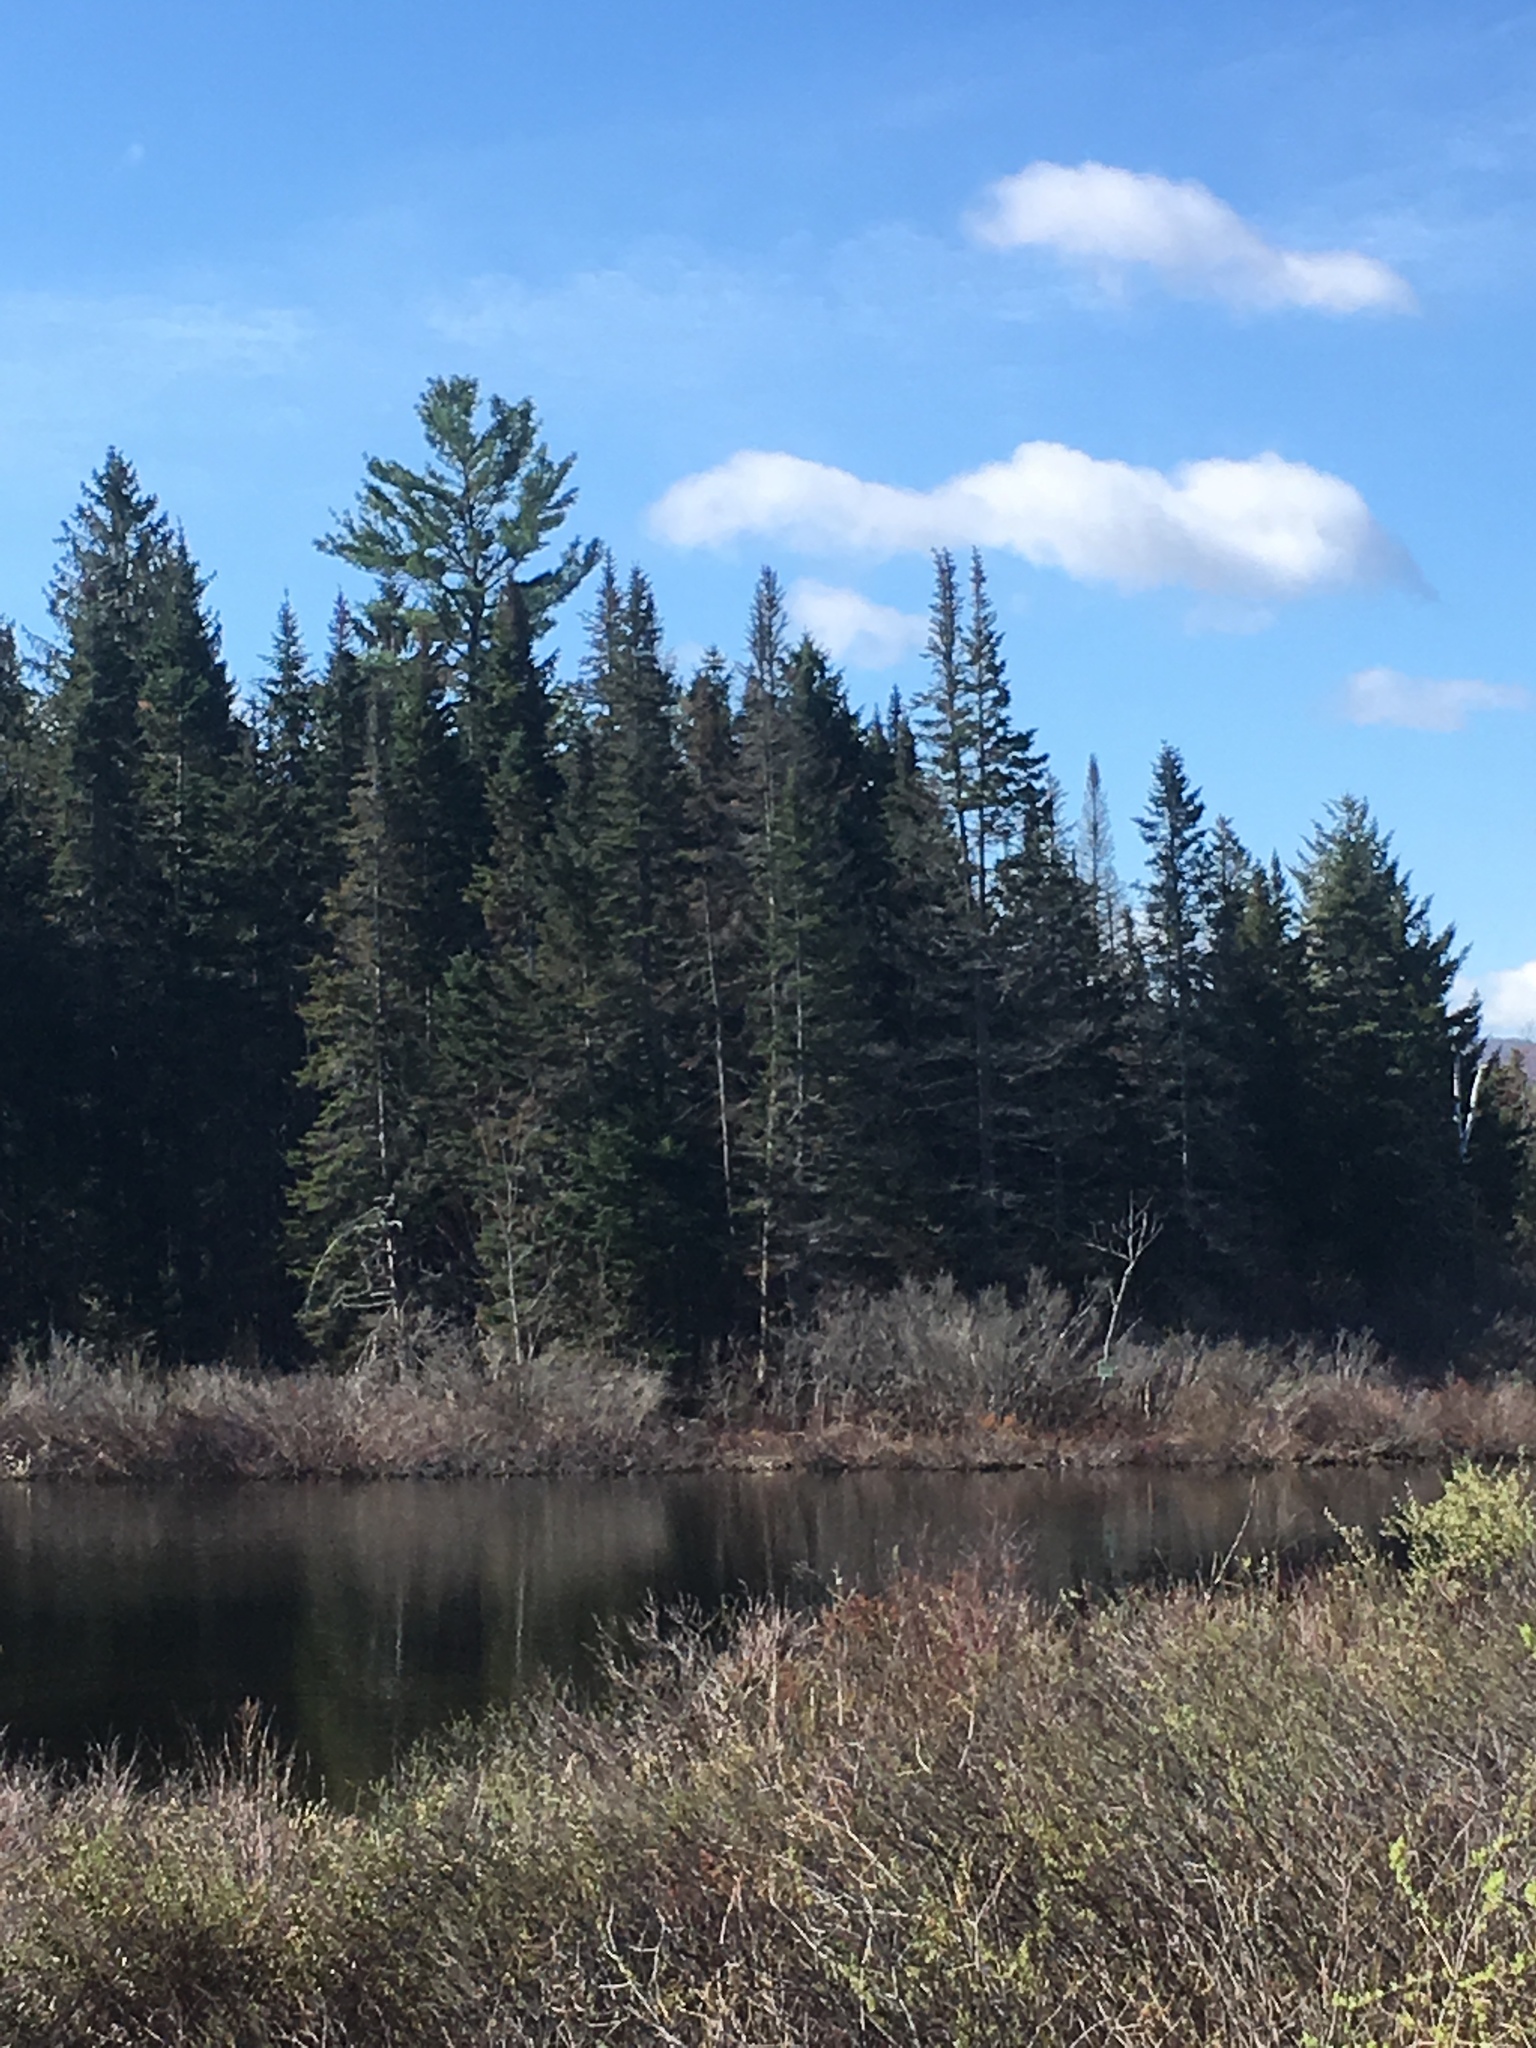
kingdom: Plantae
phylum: Tracheophyta
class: Pinopsida
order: Pinales
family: Pinaceae
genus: Pinus
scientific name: Pinus strobus
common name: Weymouth pine
